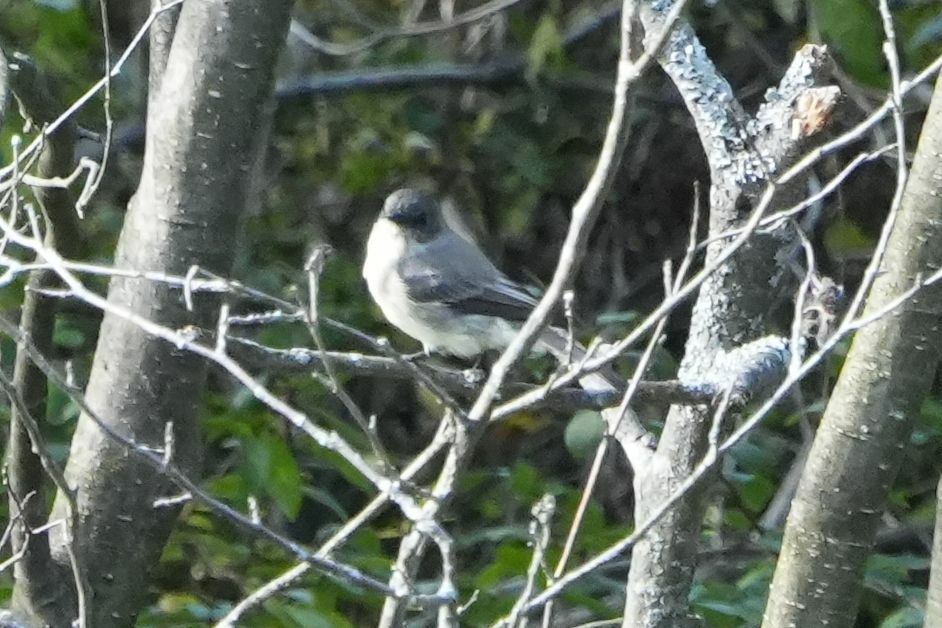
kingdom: Animalia
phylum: Chordata
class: Aves
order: Passeriformes
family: Tyrannidae
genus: Sayornis
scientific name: Sayornis phoebe
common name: Eastern phoebe
